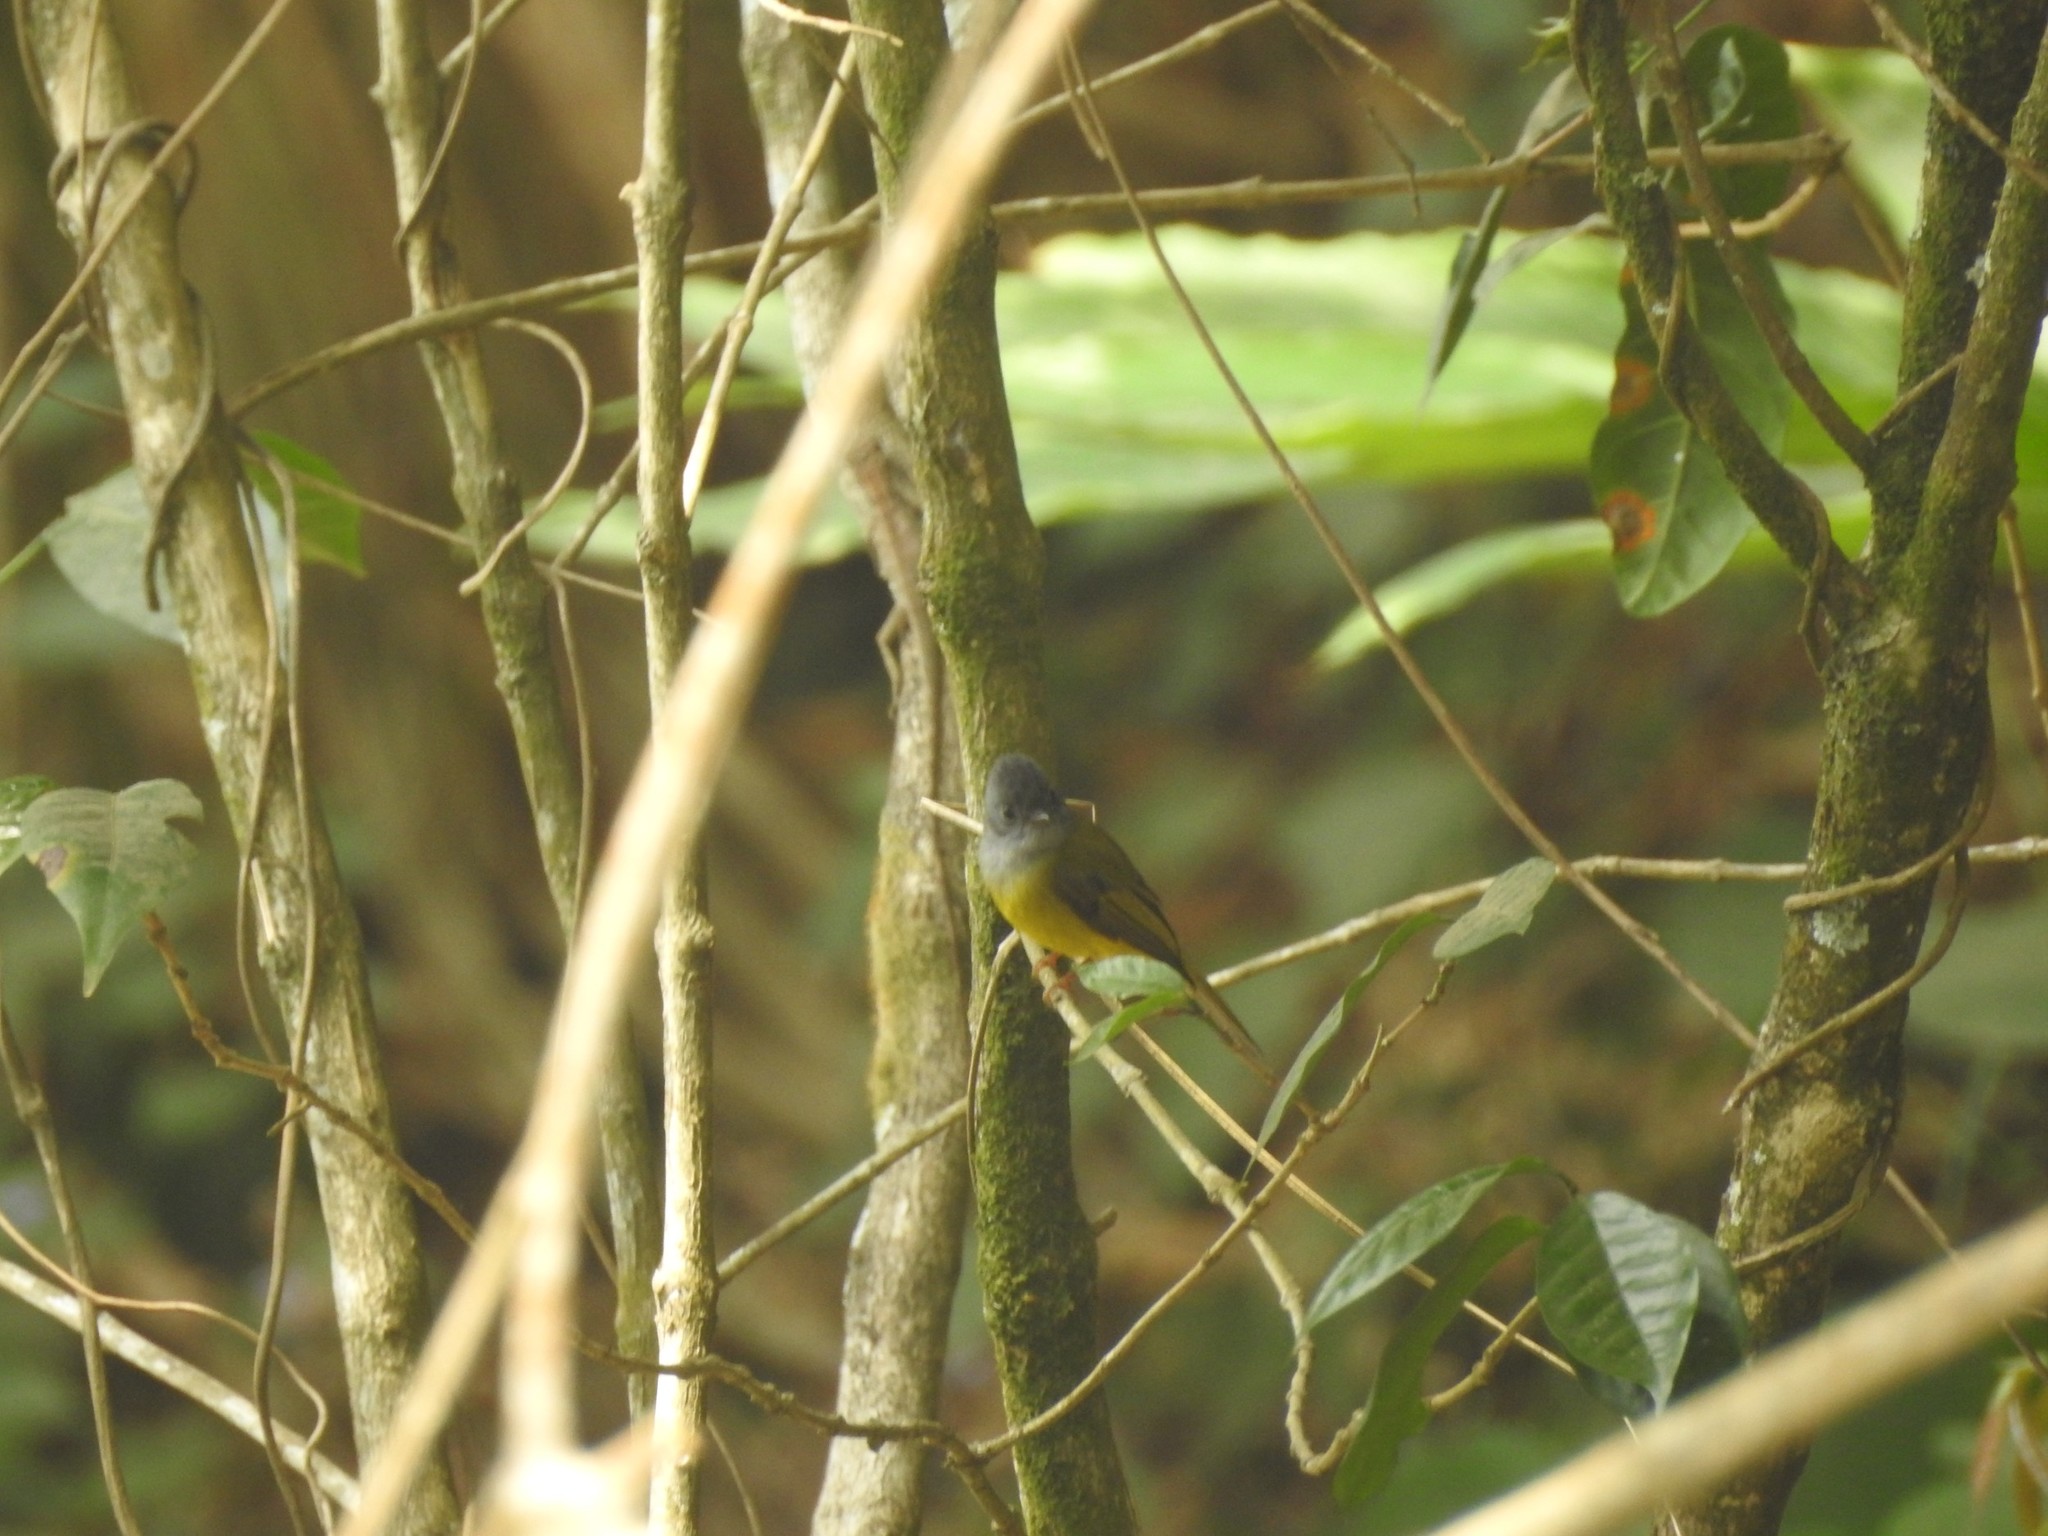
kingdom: Animalia
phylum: Chordata
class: Aves
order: Passeriformes
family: Stenostiridae
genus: Culicicapa
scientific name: Culicicapa ceylonensis
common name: Grey-headed canary-flycatcher
